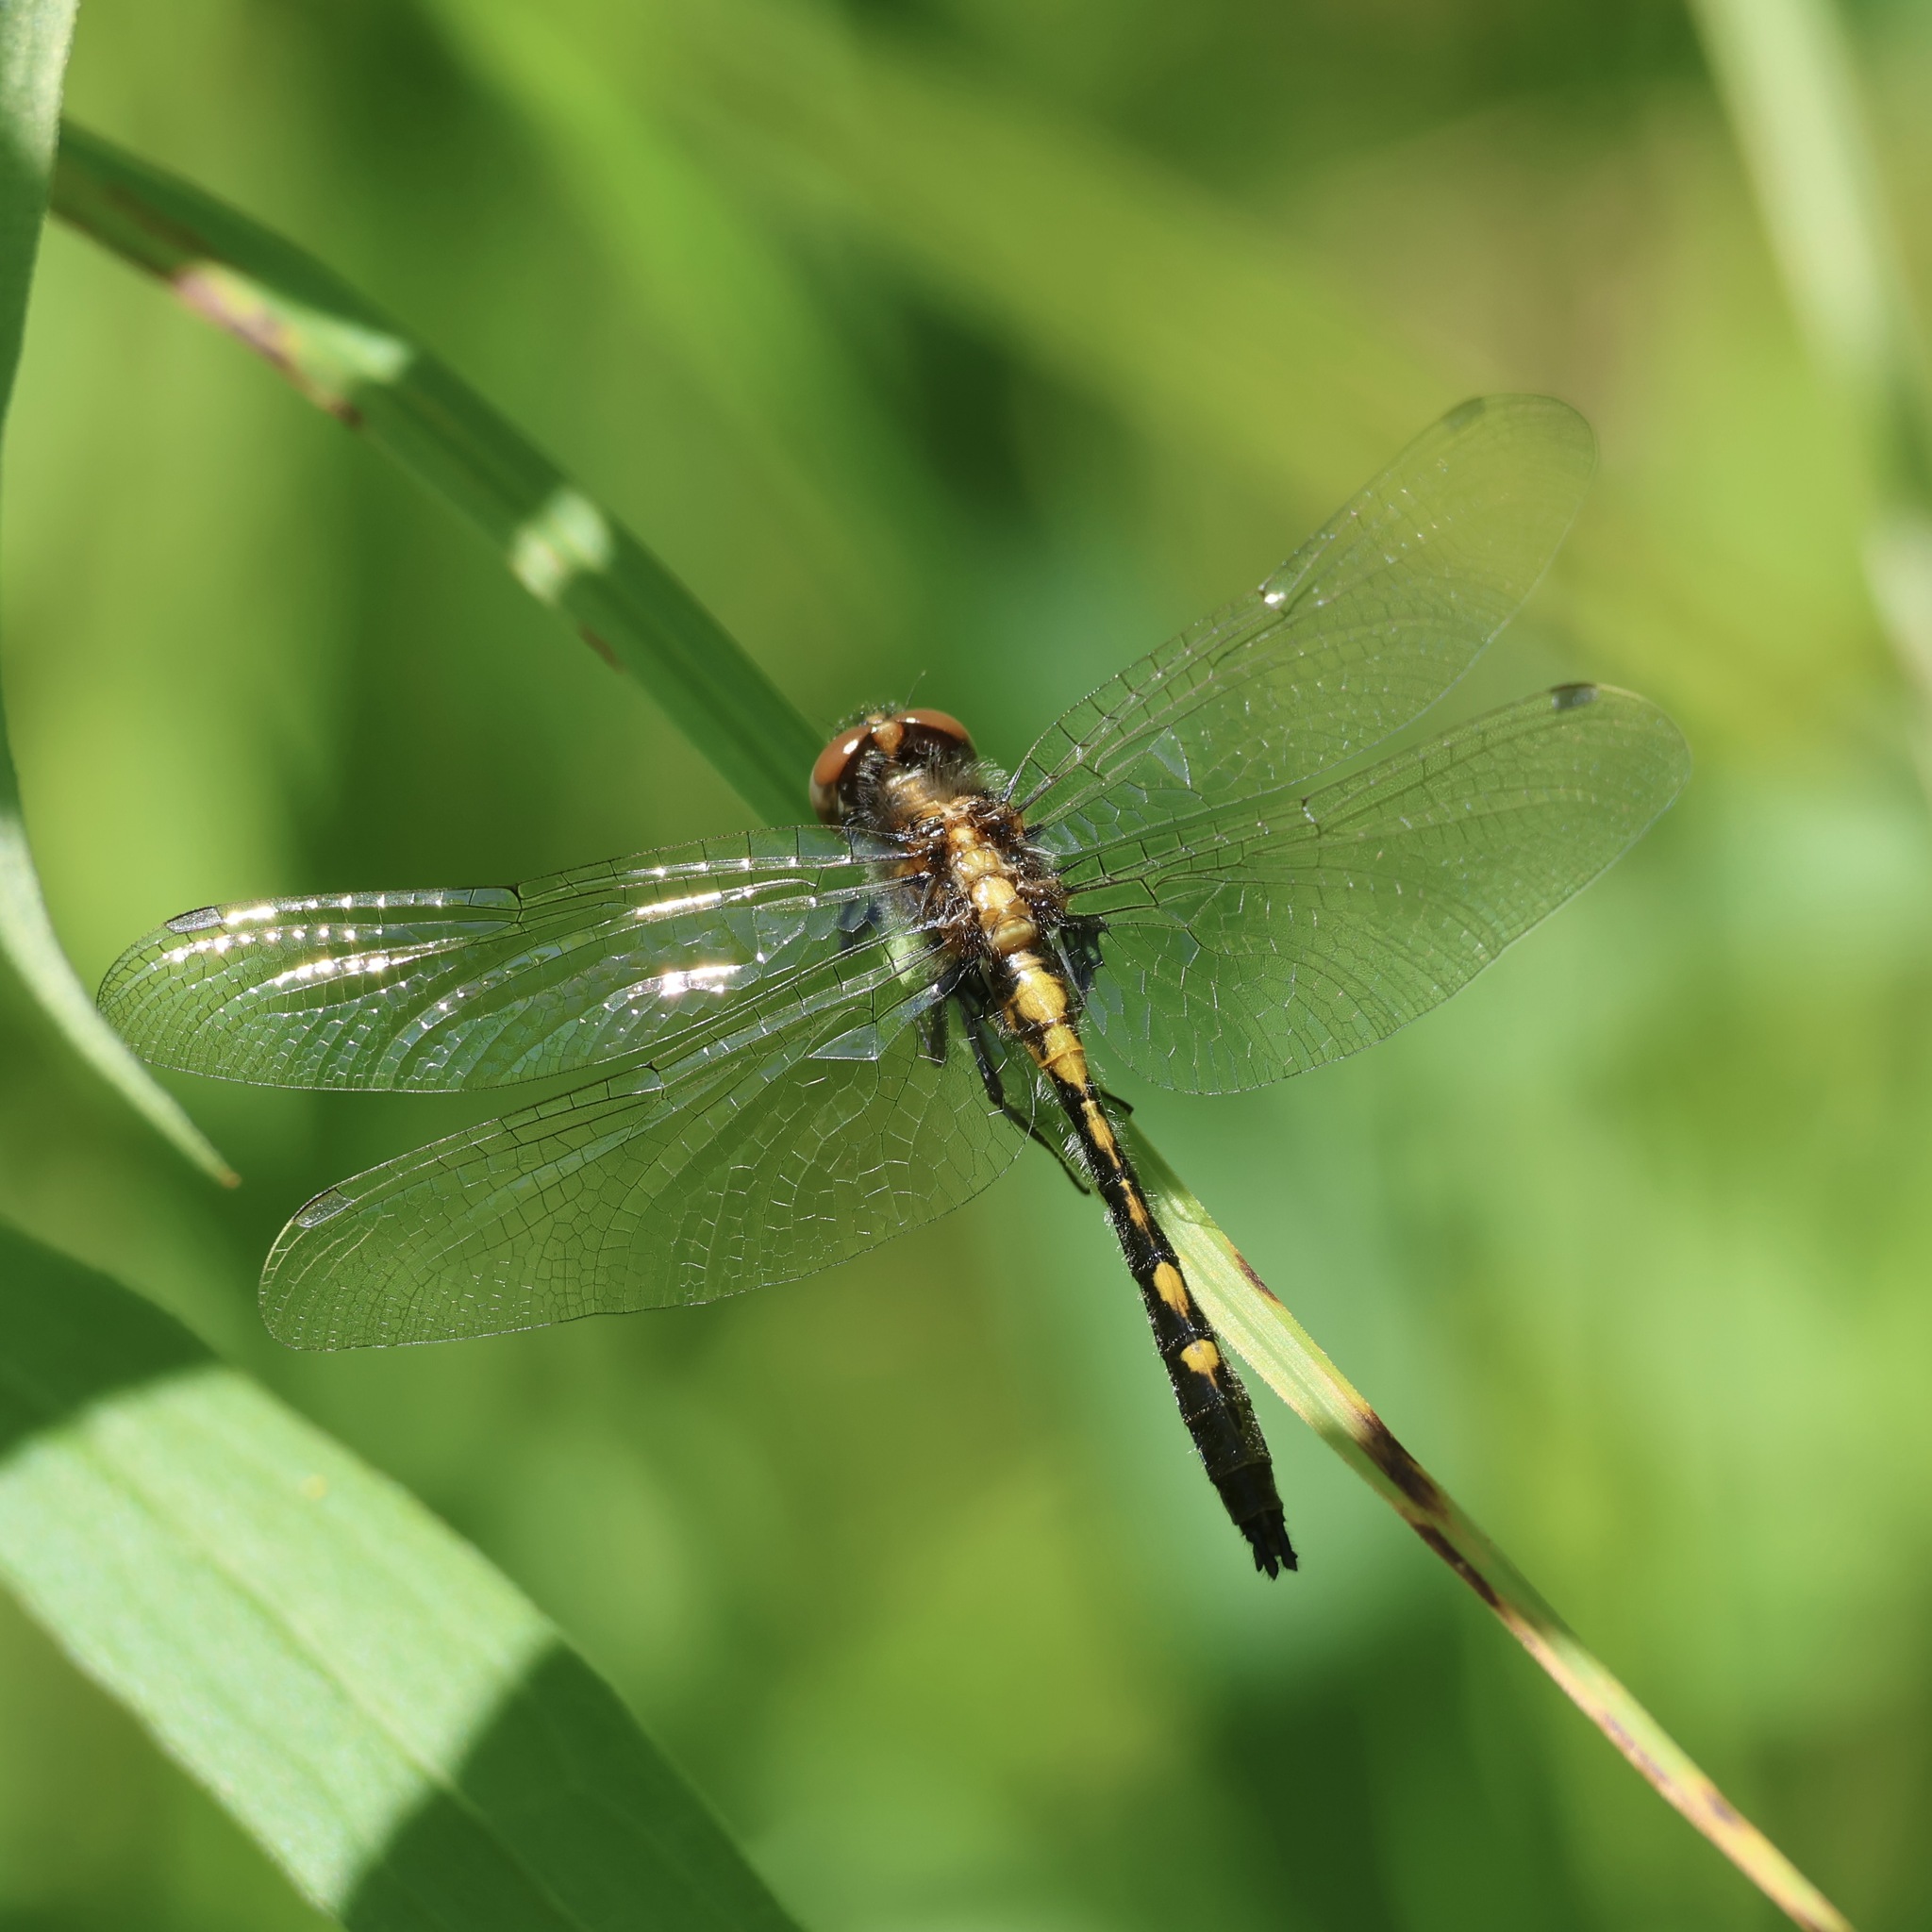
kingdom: Animalia
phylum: Arthropoda
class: Insecta
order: Odonata
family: Libellulidae
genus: Leucorrhinia
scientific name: Leucorrhinia intacta
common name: Dot-tailed whiteface
